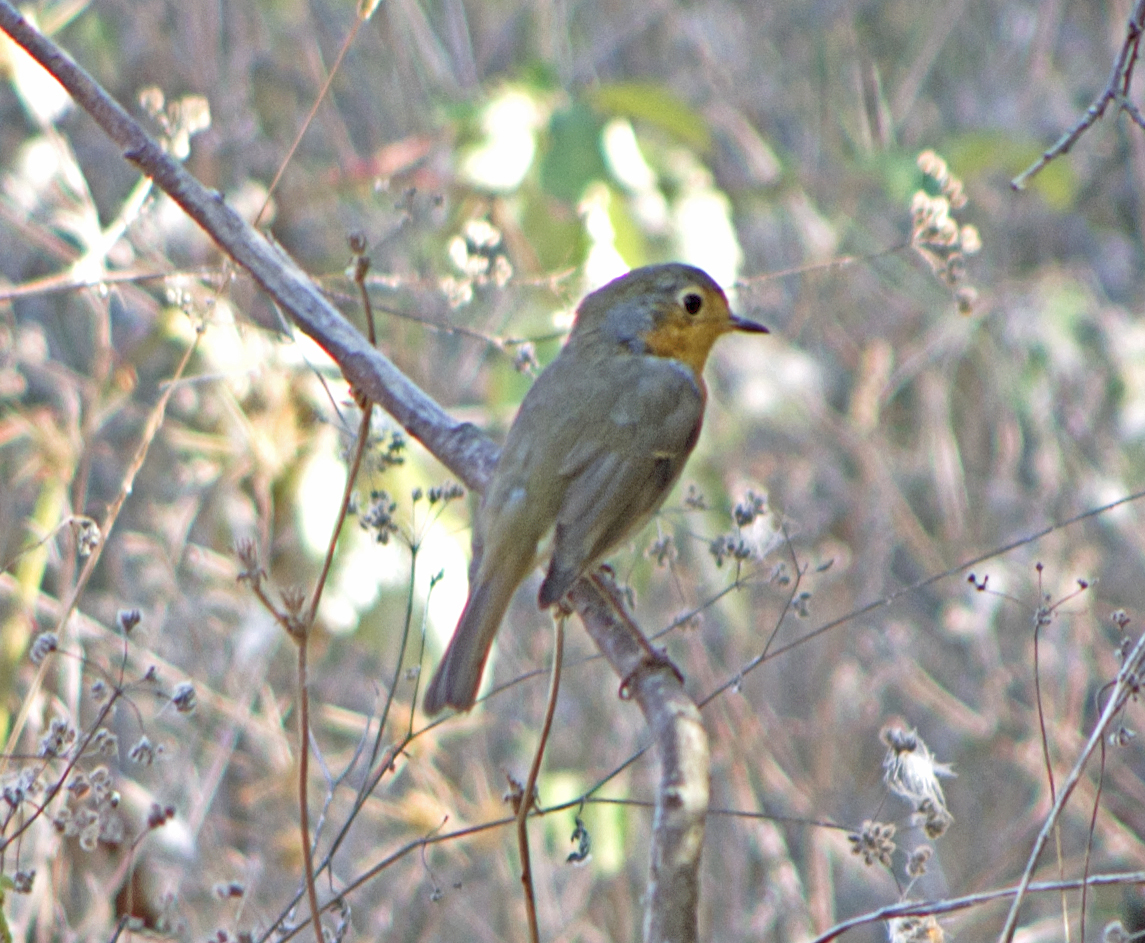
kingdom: Animalia
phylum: Chordata
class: Aves
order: Passeriformes
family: Muscicapidae
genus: Erithacus
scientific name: Erithacus rubecula
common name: European robin
